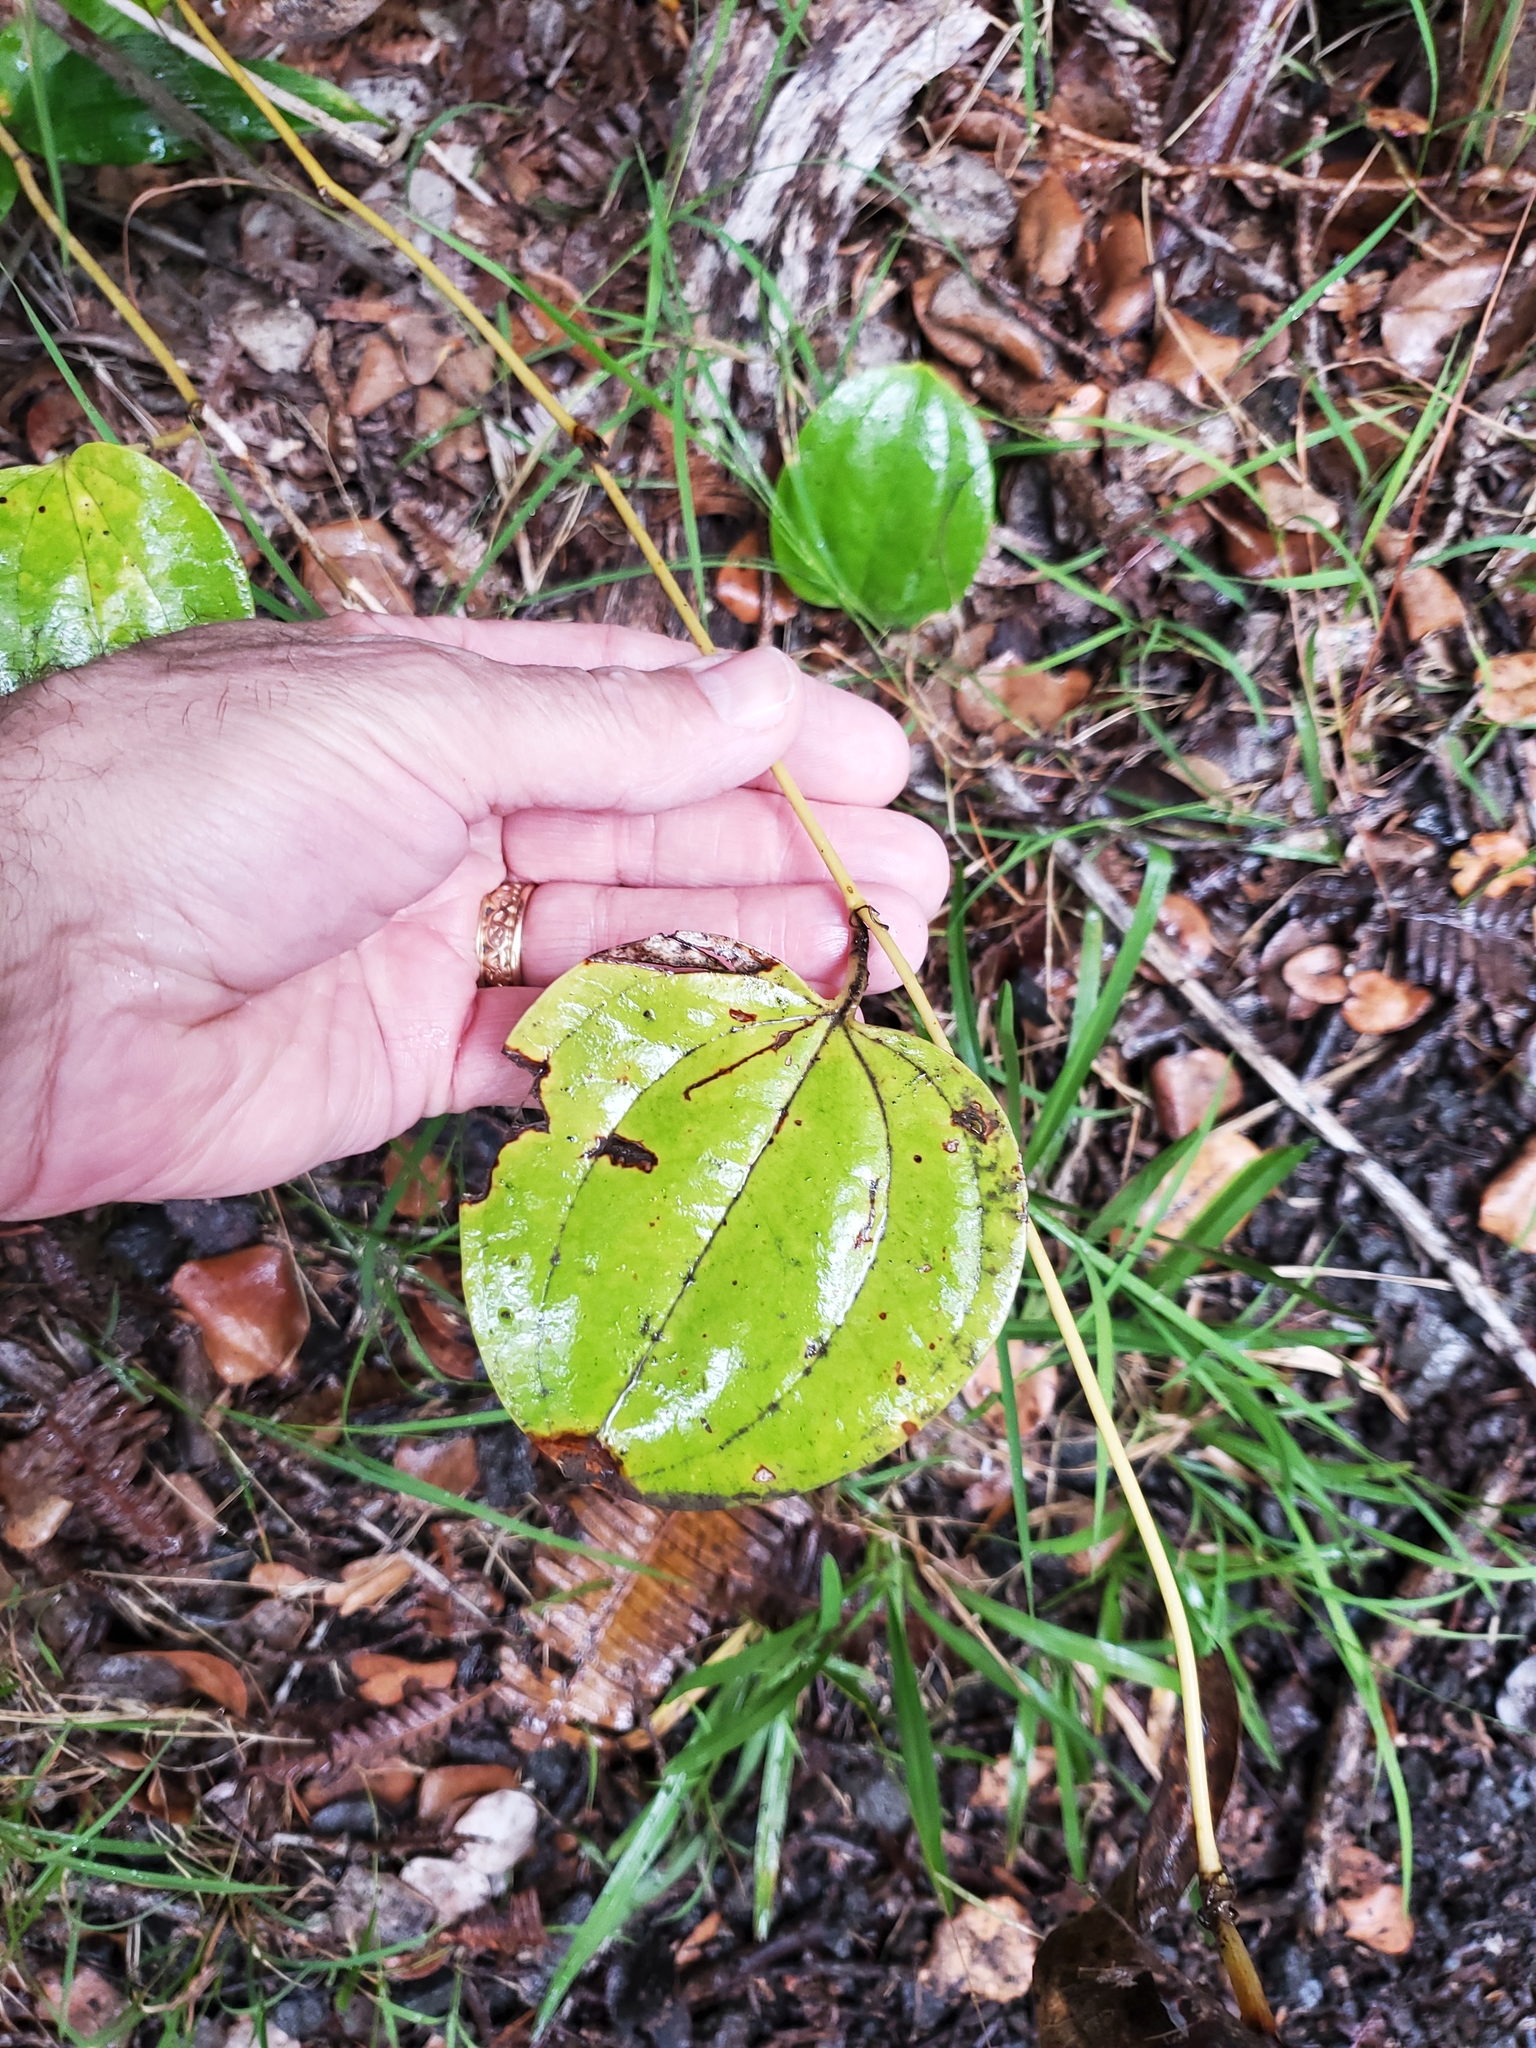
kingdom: Plantae
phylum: Tracheophyta
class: Liliopsida
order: Liliales
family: Smilacaceae
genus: Smilax
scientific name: Smilax melastomifolia
